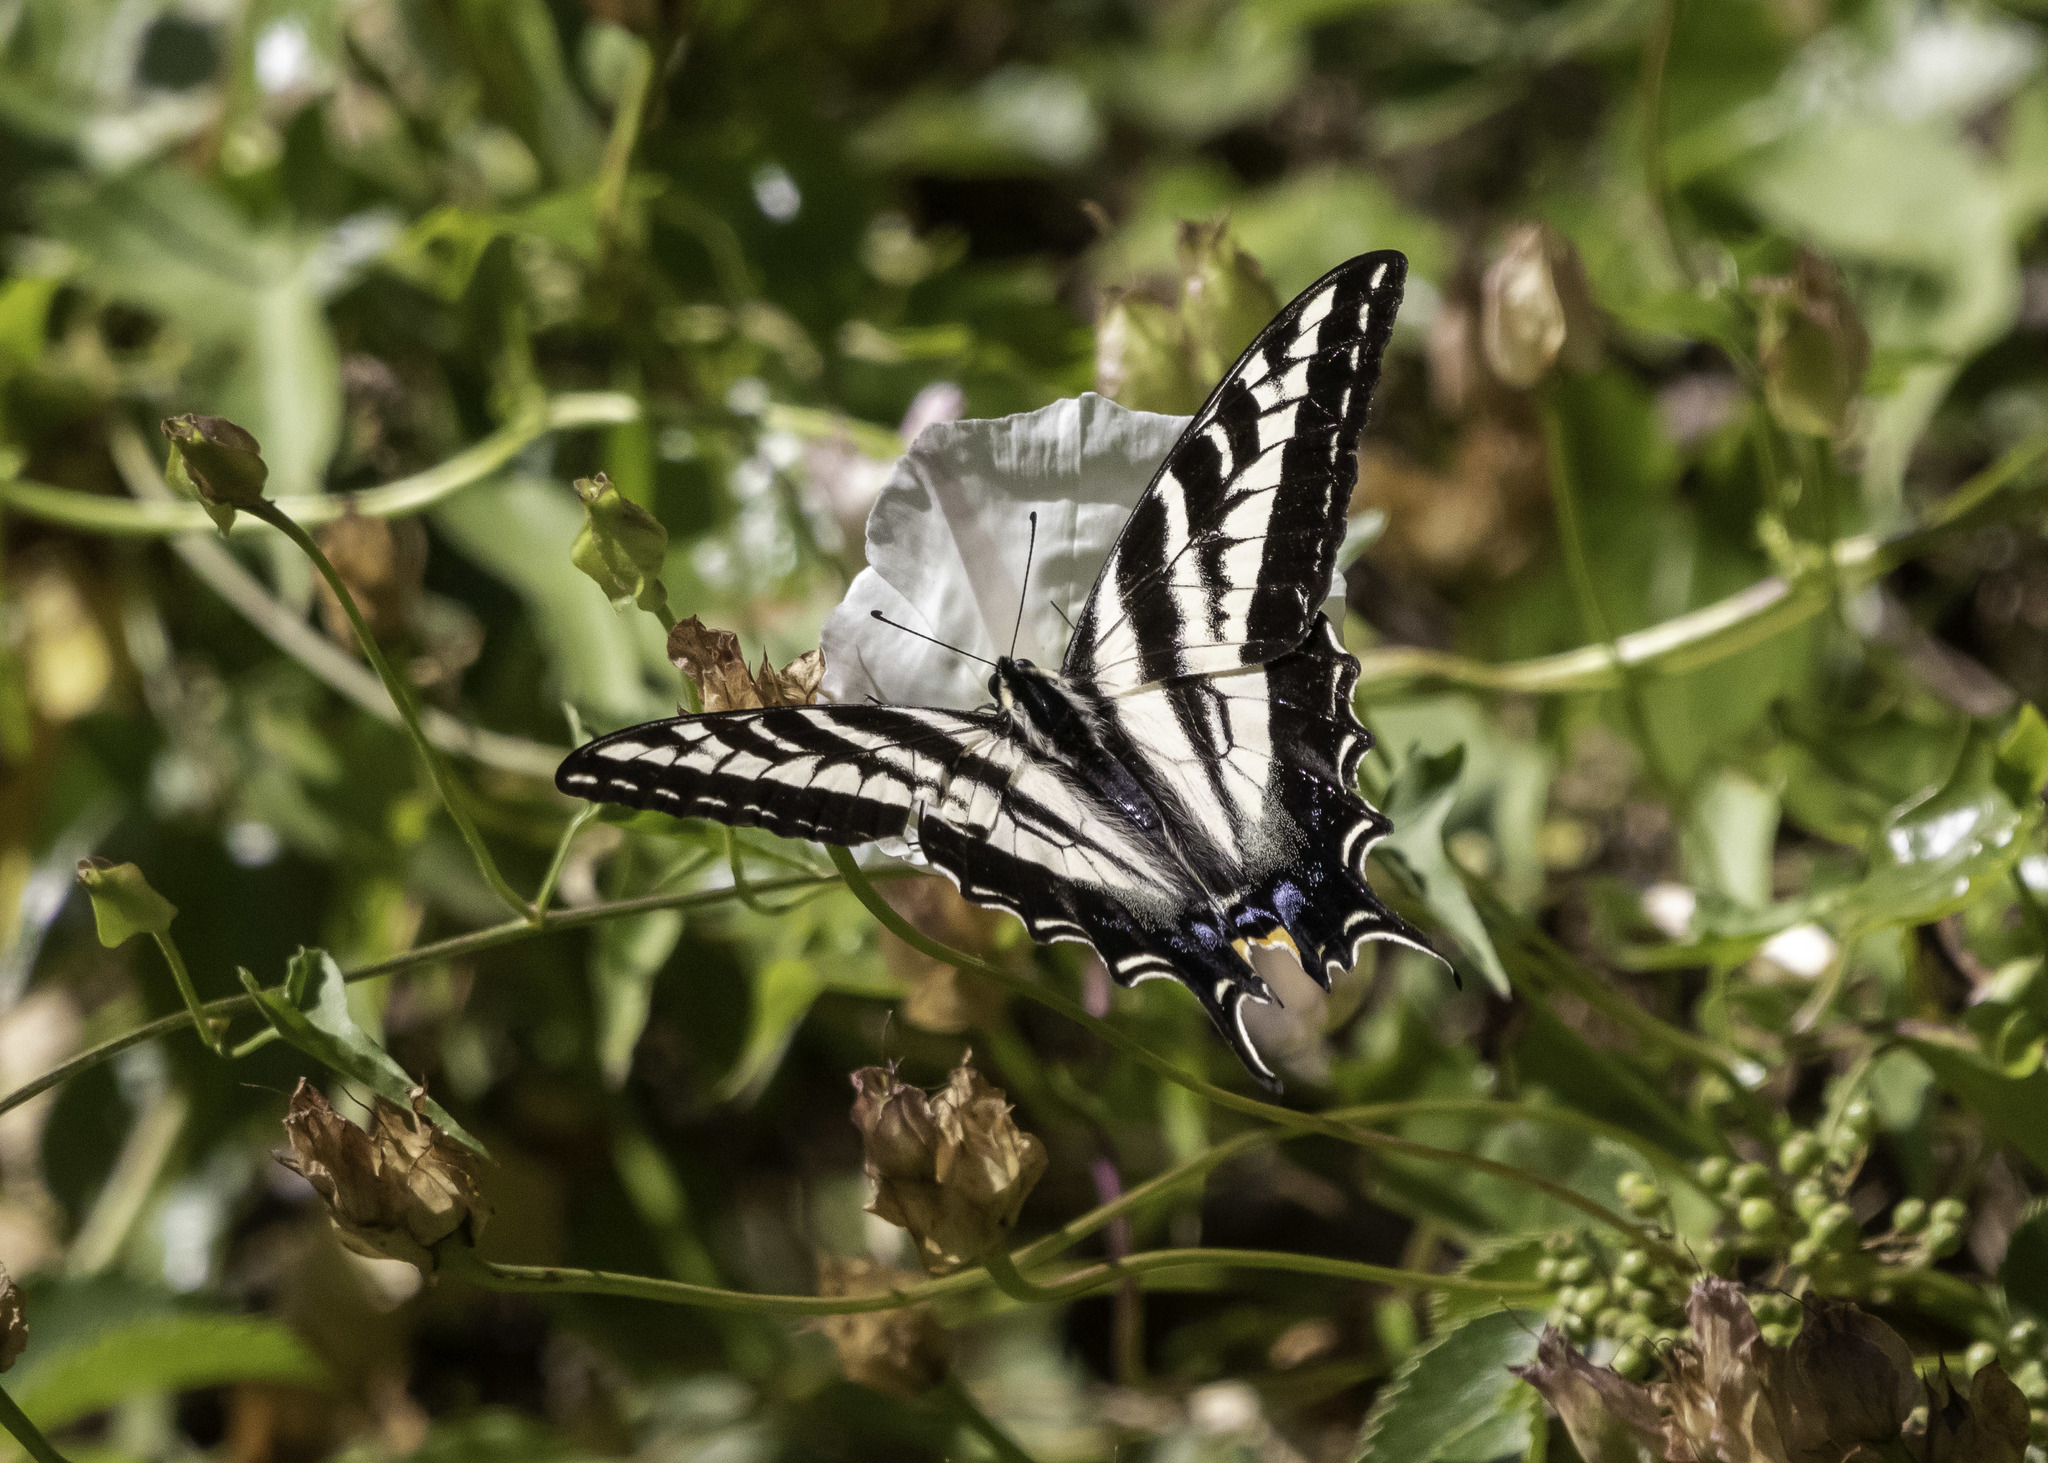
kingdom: Animalia
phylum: Arthropoda
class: Insecta
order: Lepidoptera
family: Papilionidae
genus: Papilio
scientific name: Papilio eurymedon
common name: Pale tiger swallowtail
